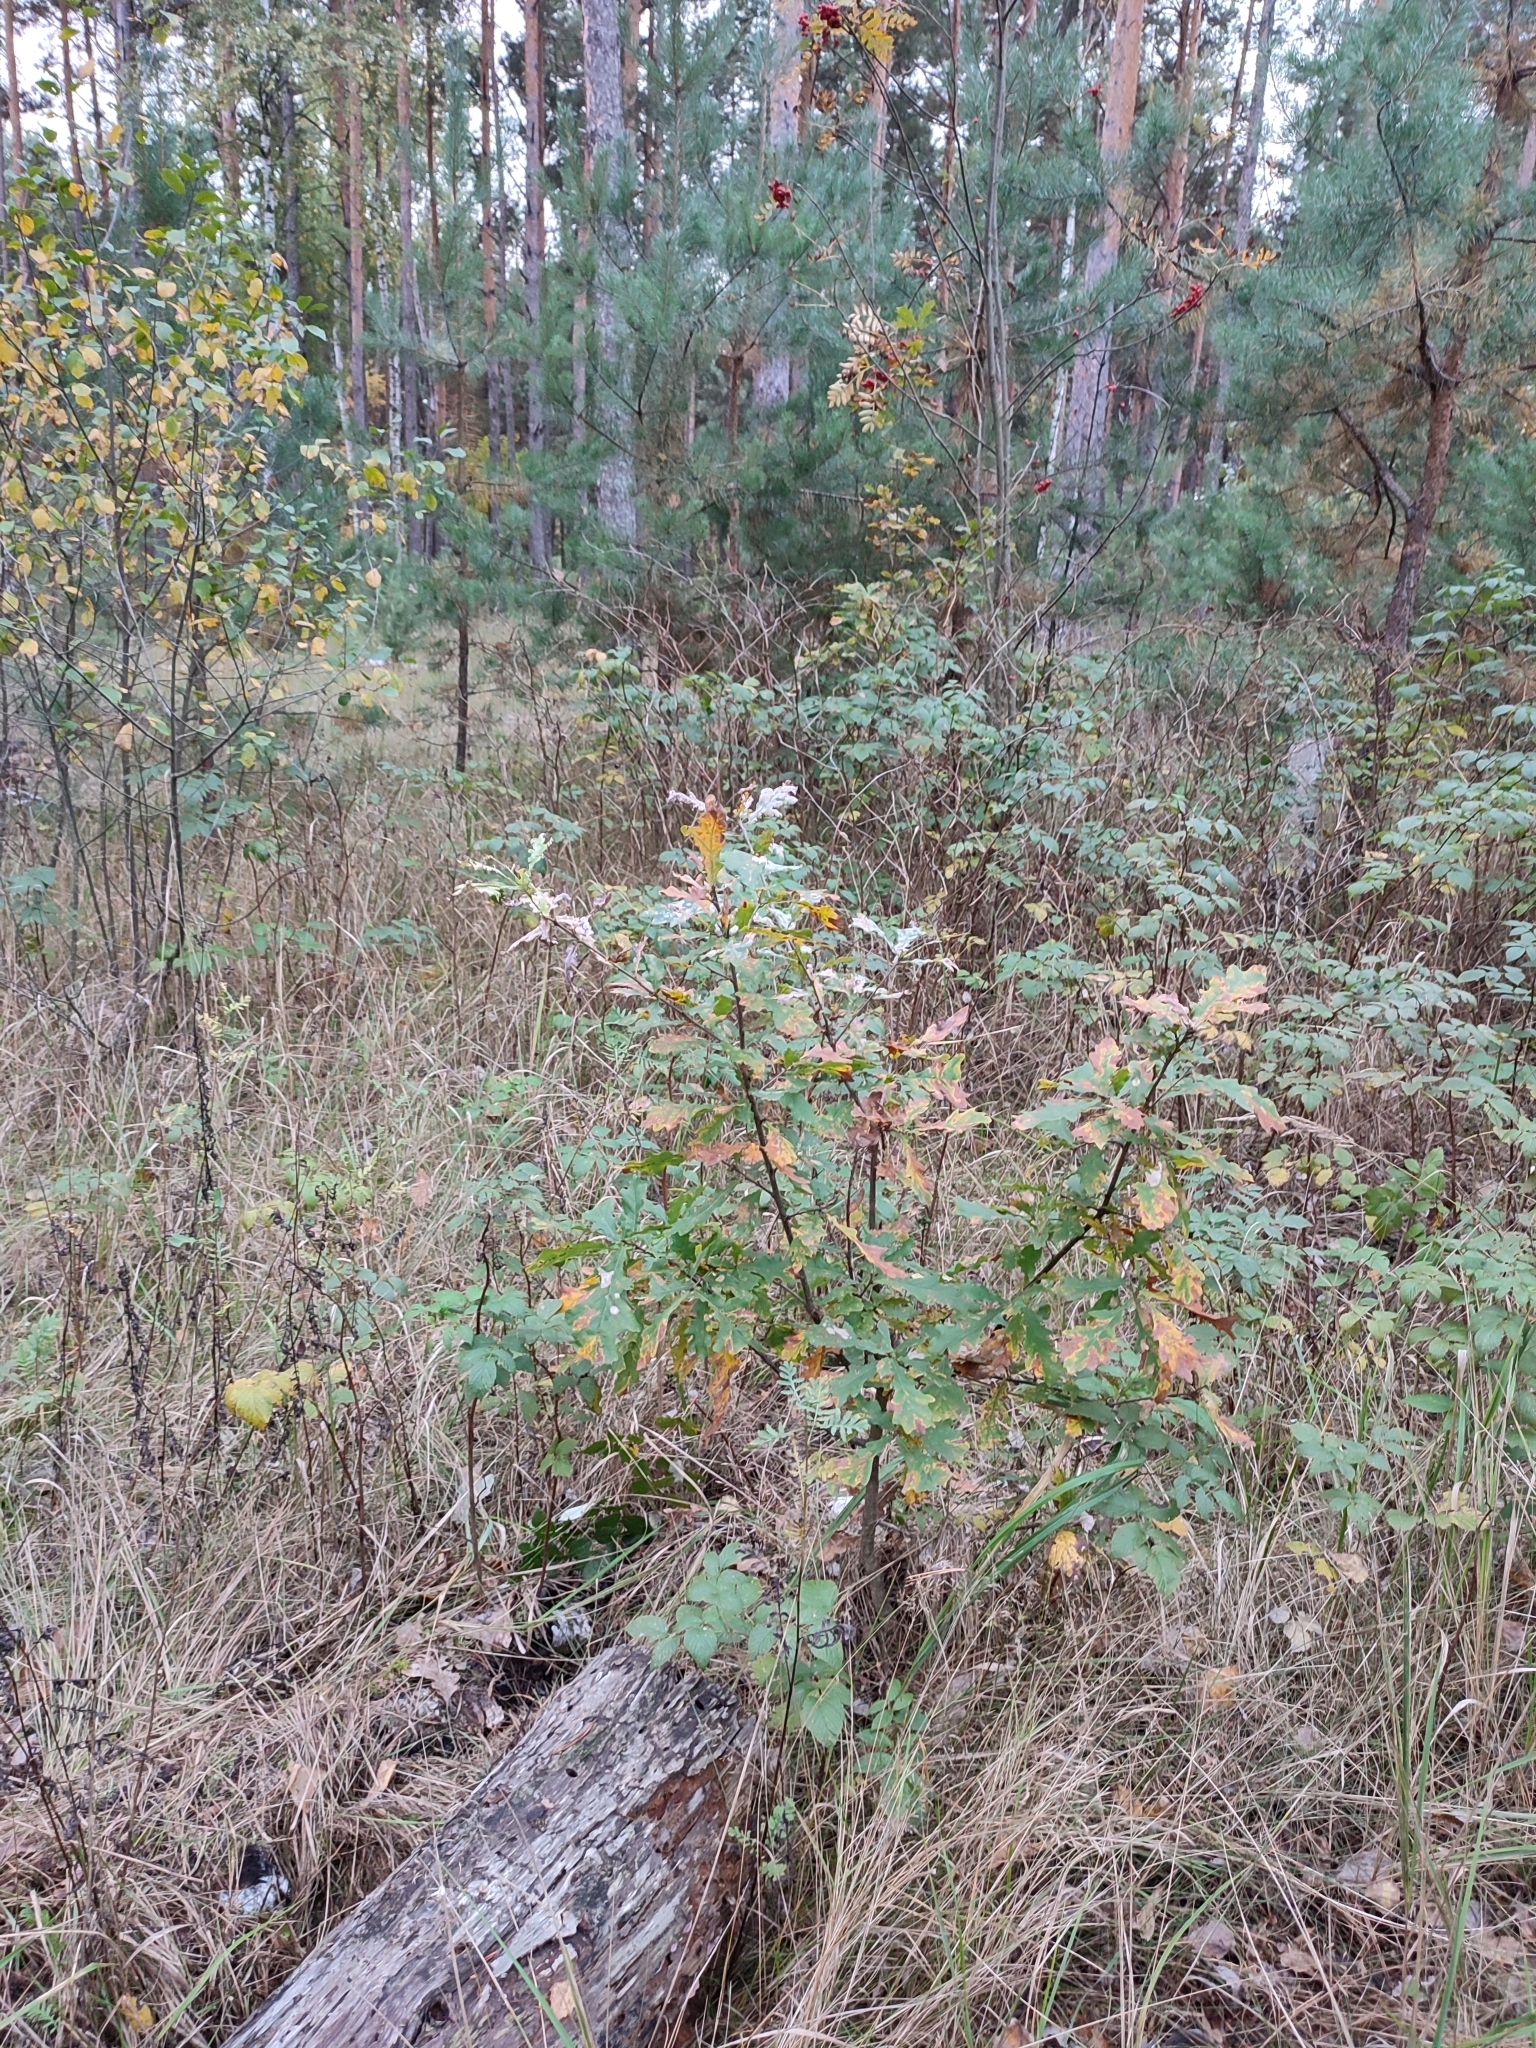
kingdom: Plantae
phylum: Tracheophyta
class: Magnoliopsida
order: Fagales
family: Fagaceae
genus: Quercus
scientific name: Quercus robur
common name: Pedunculate oak
